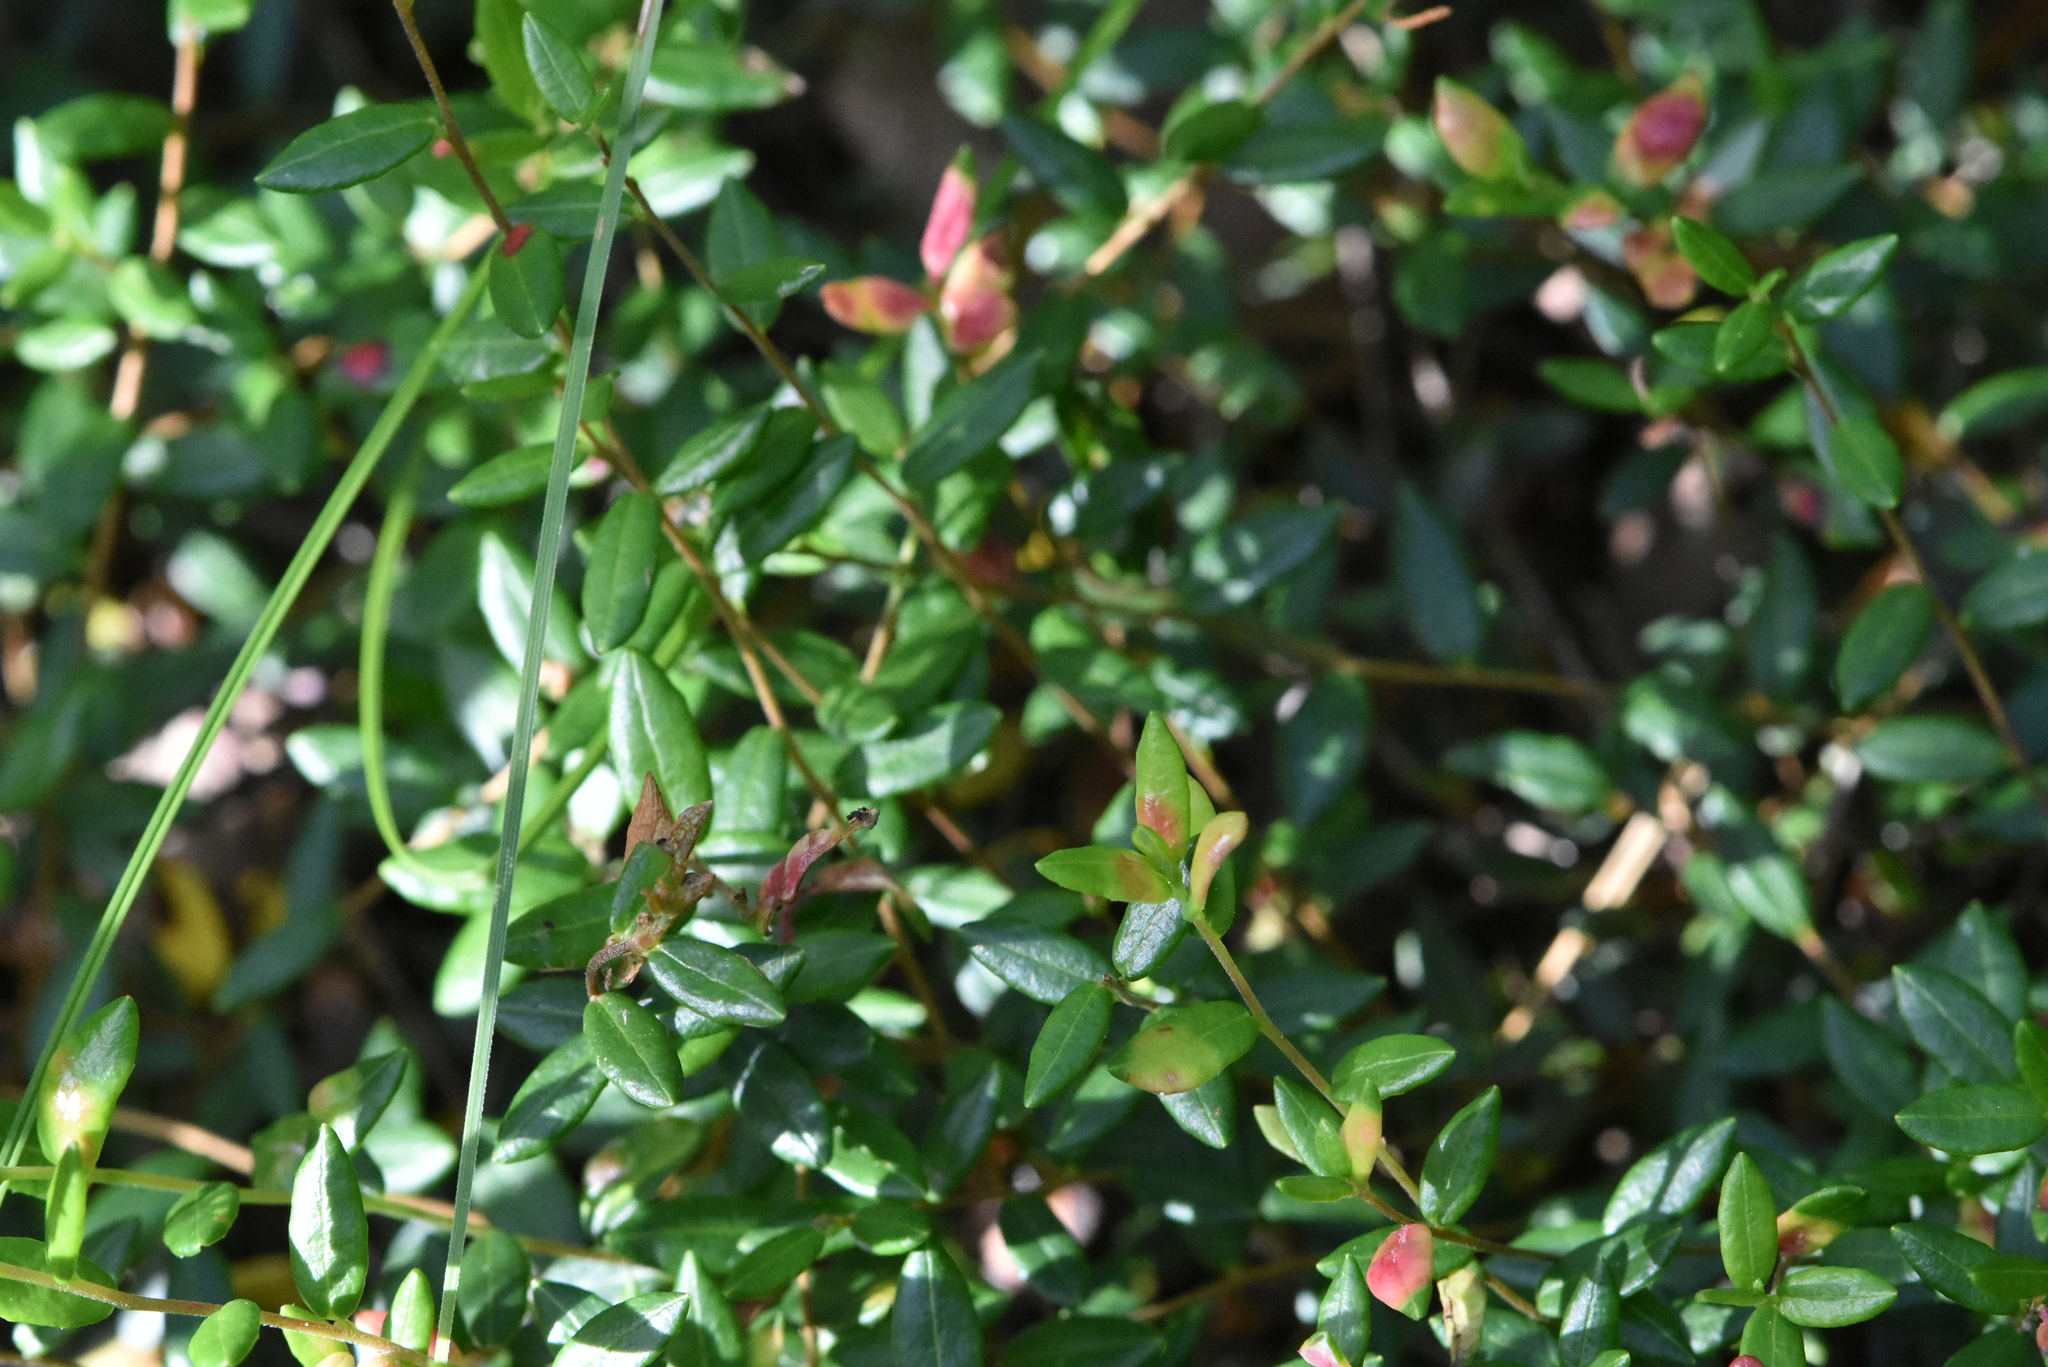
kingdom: Plantae
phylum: Tracheophyta
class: Magnoliopsida
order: Ericales
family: Ericaceae
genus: Vaccinium
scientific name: Vaccinium oxycoccos
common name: Cranberry
